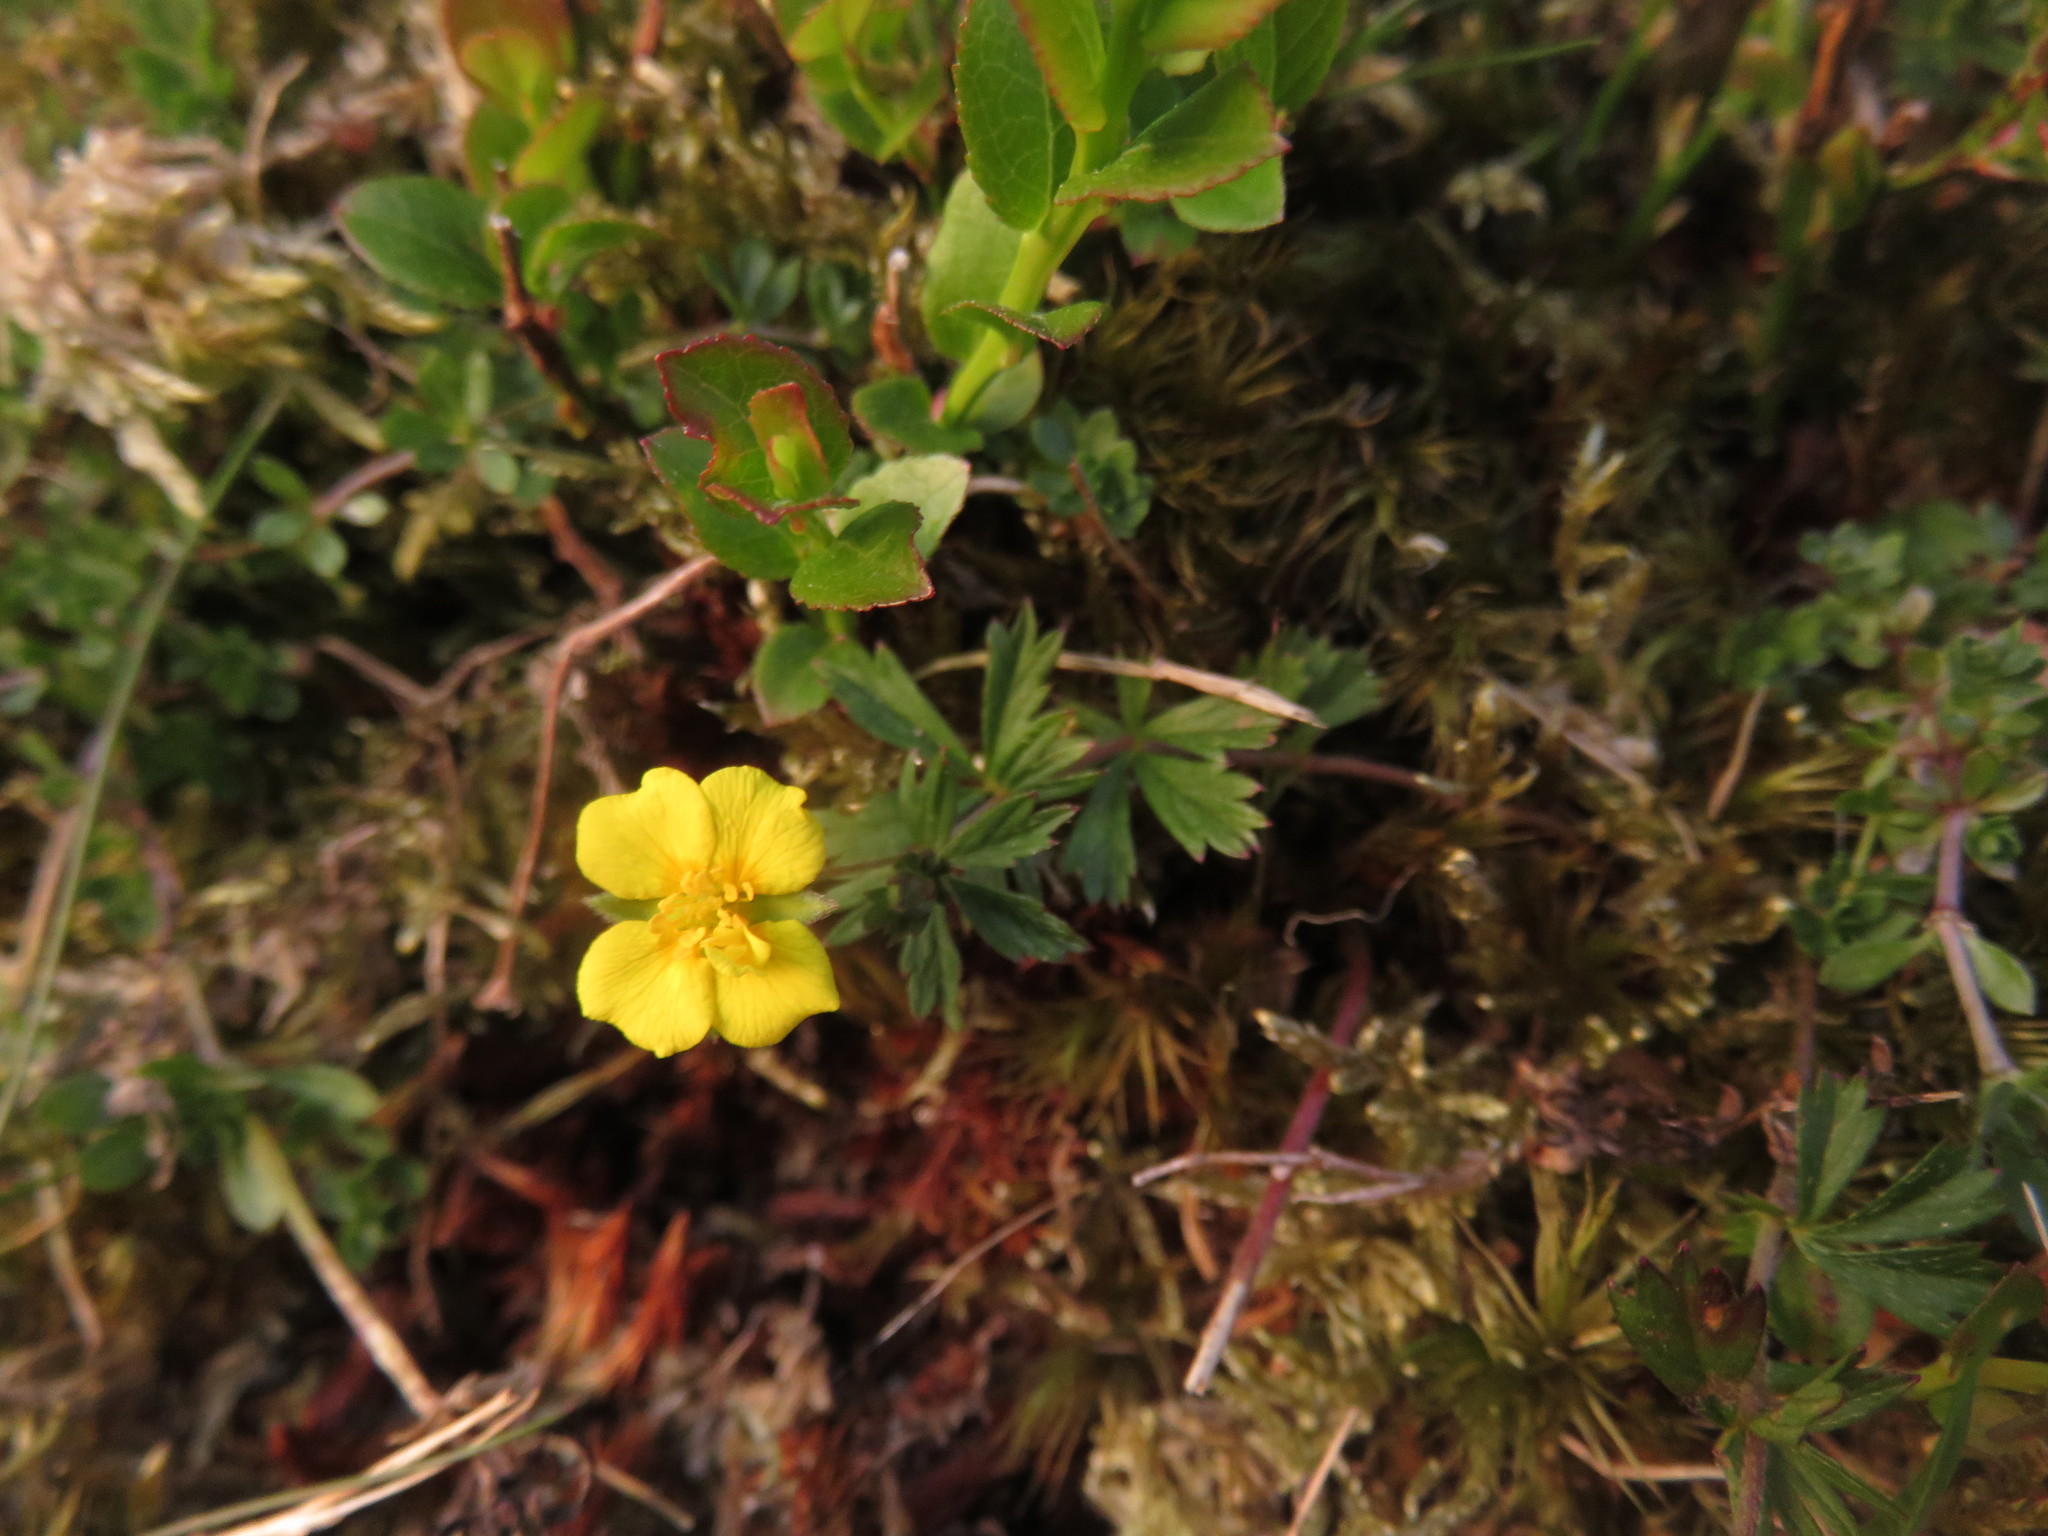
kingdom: Plantae
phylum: Tracheophyta
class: Magnoliopsida
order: Rosales
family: Rosaceae
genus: Potentilla
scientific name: Potentilla erecta
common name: Tormentil
